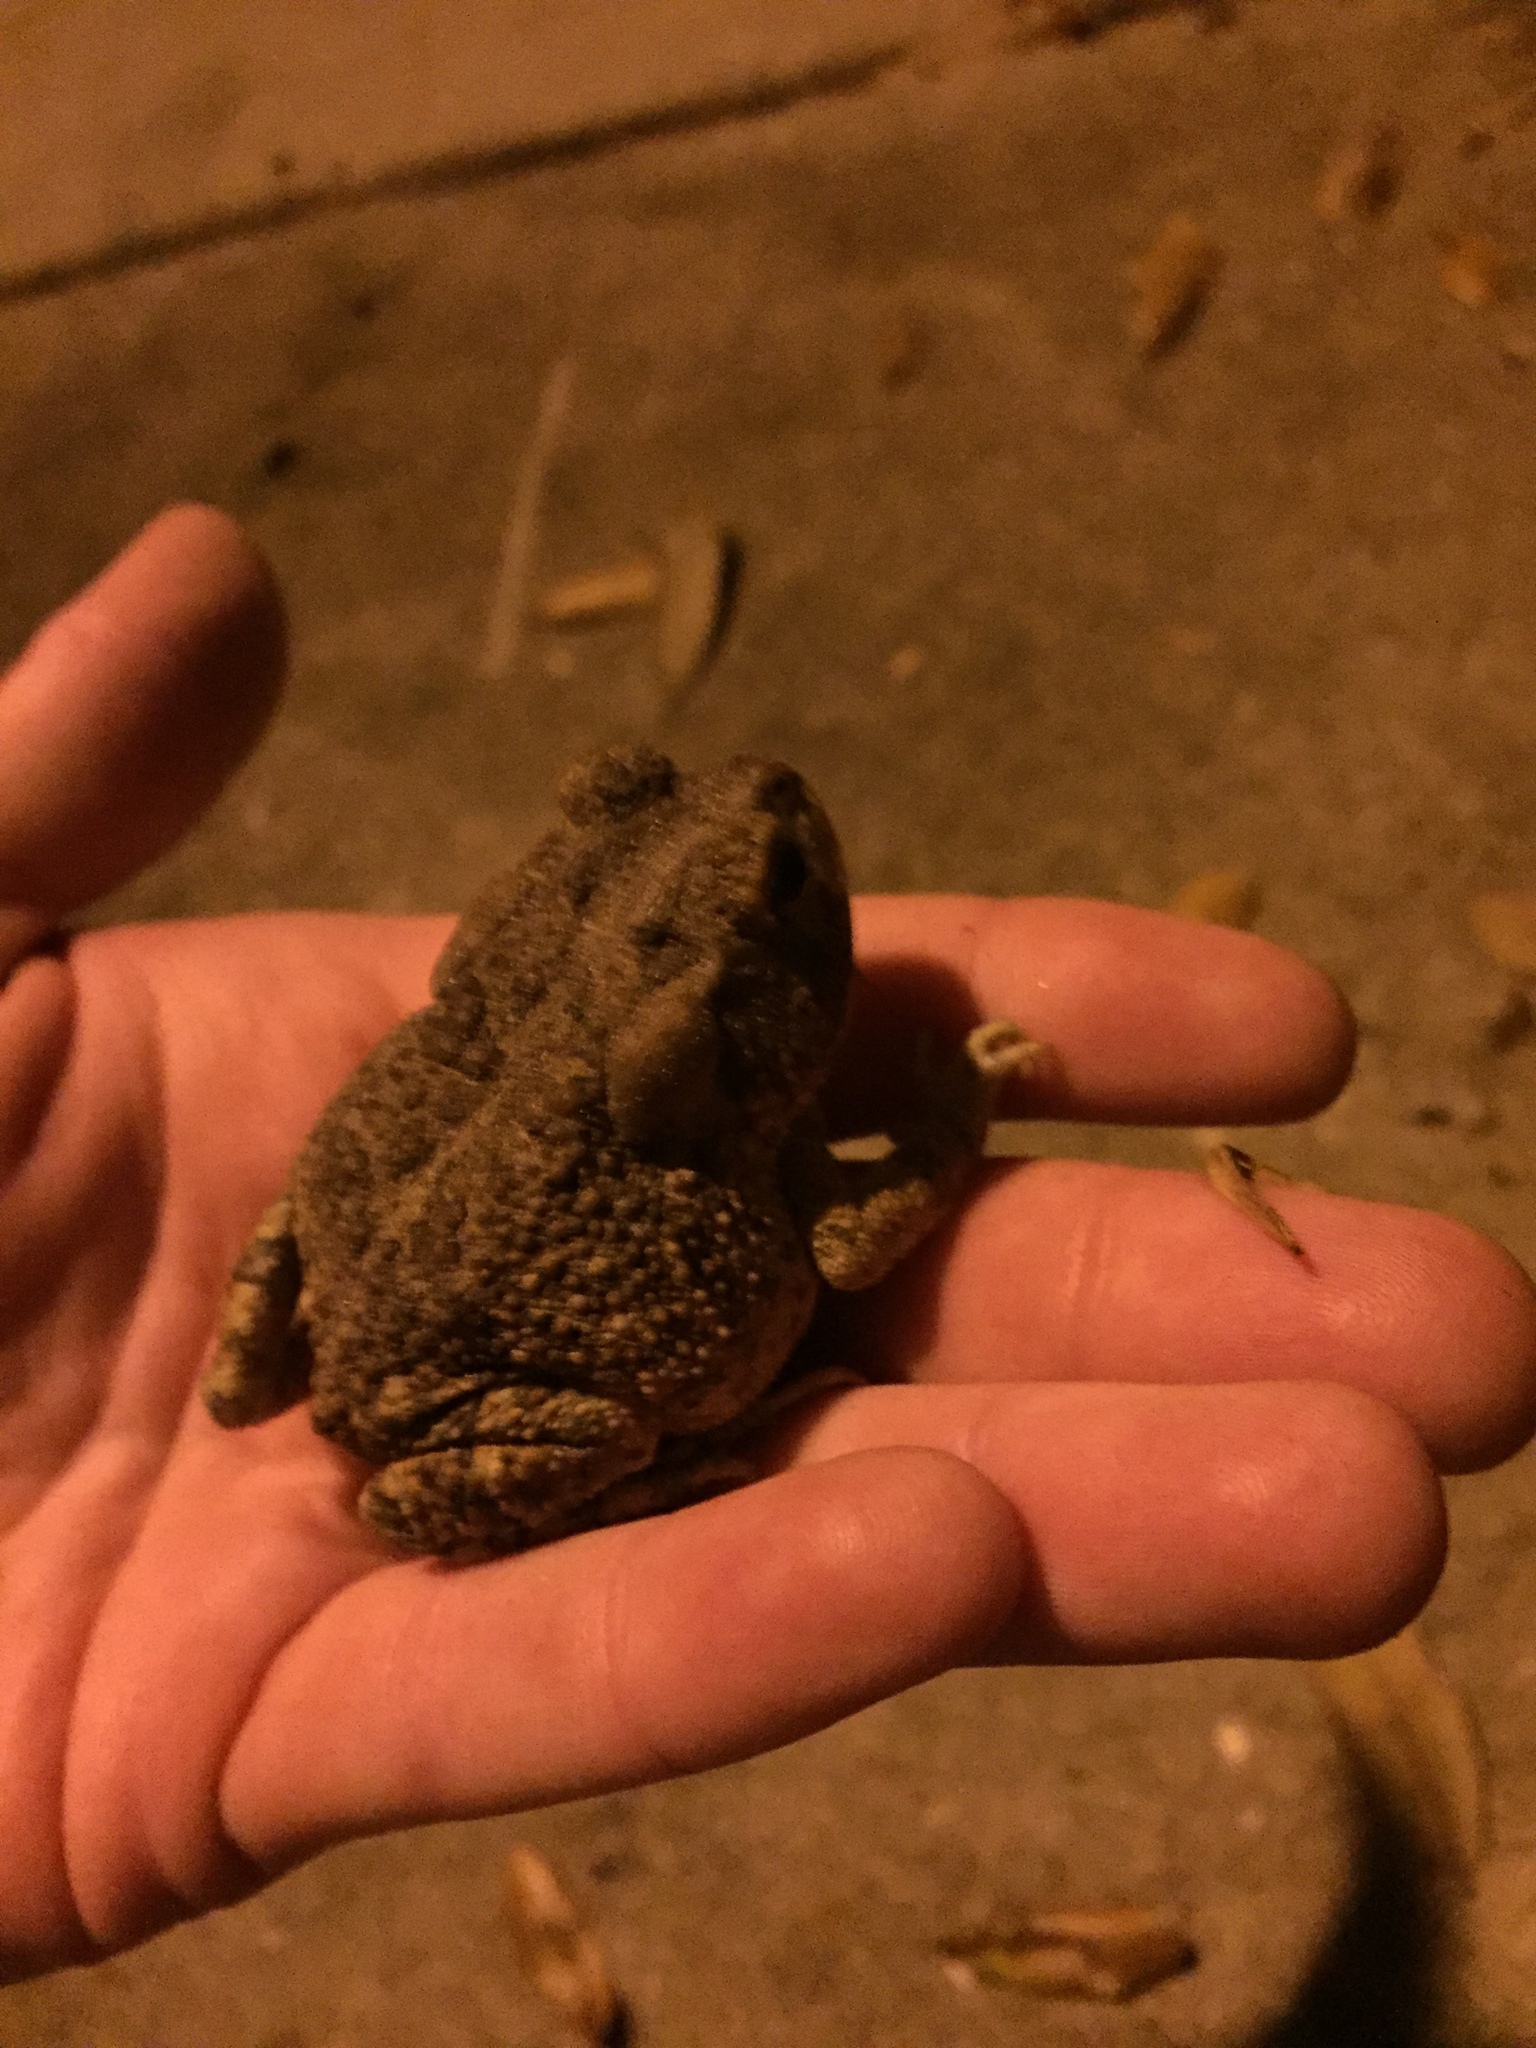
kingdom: Animalia
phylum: Chordata
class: Amphibia
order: Anura
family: Bufonidae
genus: Anaxyrus
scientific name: Anaxyrus terrestris
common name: Southern toad
